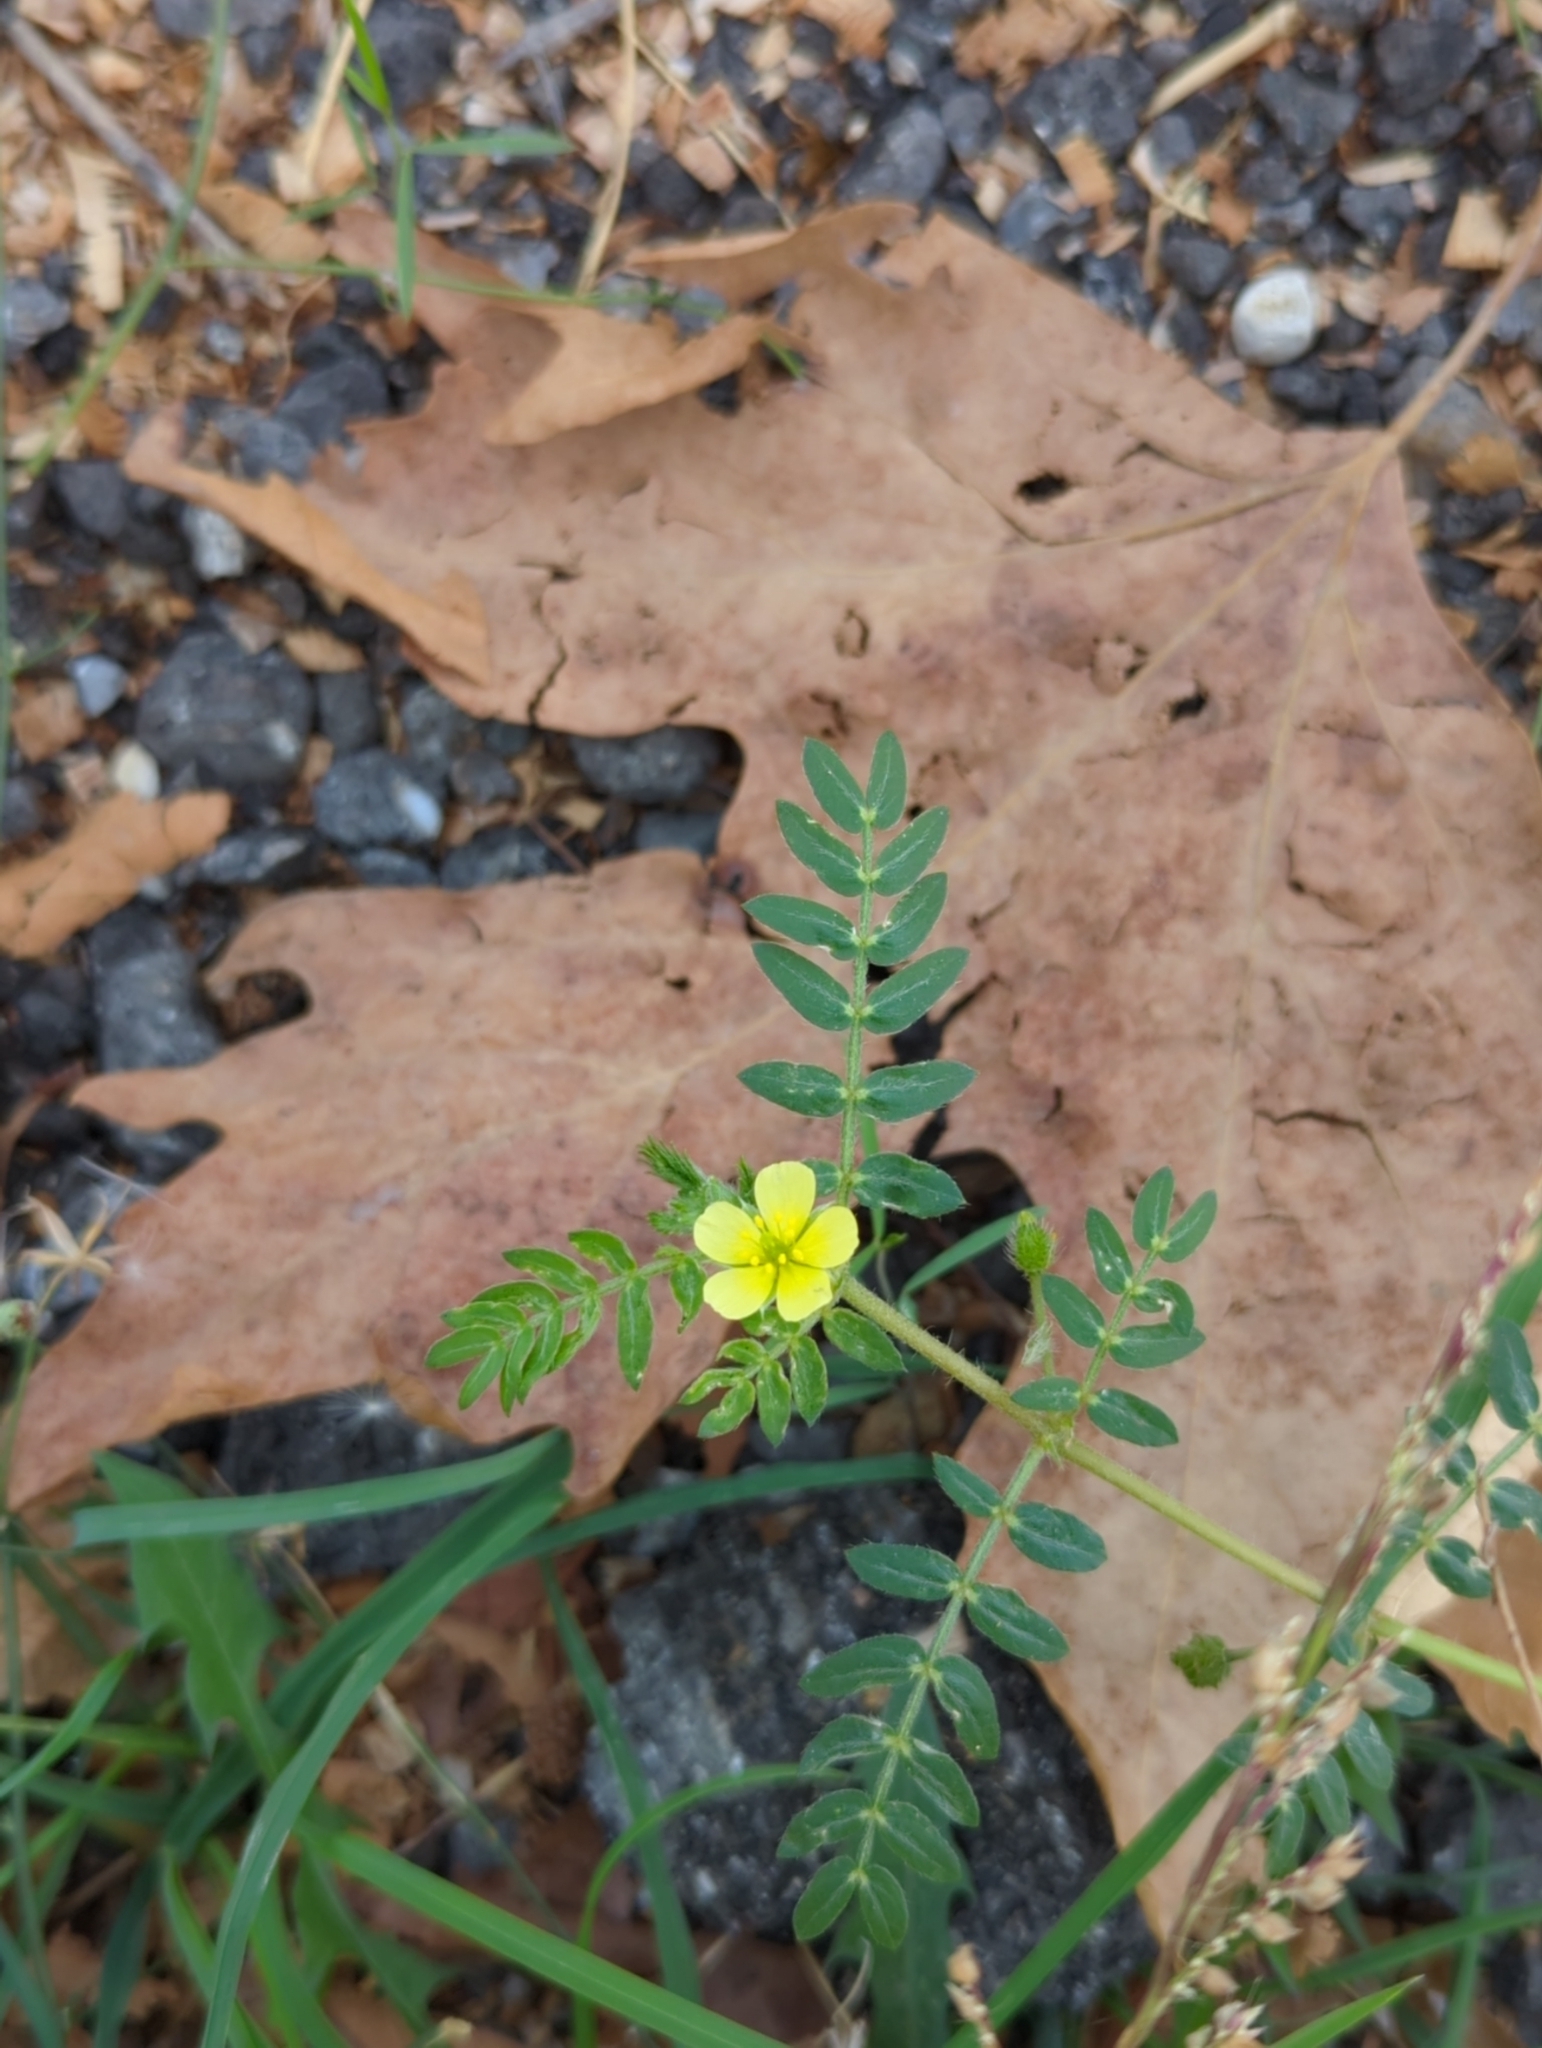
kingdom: Plantae
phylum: Tracheophyta
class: Magnoliopsida
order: Zygophyllales
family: Zygophyllaceae
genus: Tribulus
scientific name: Tribulus terrestris
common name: Puncturevine
